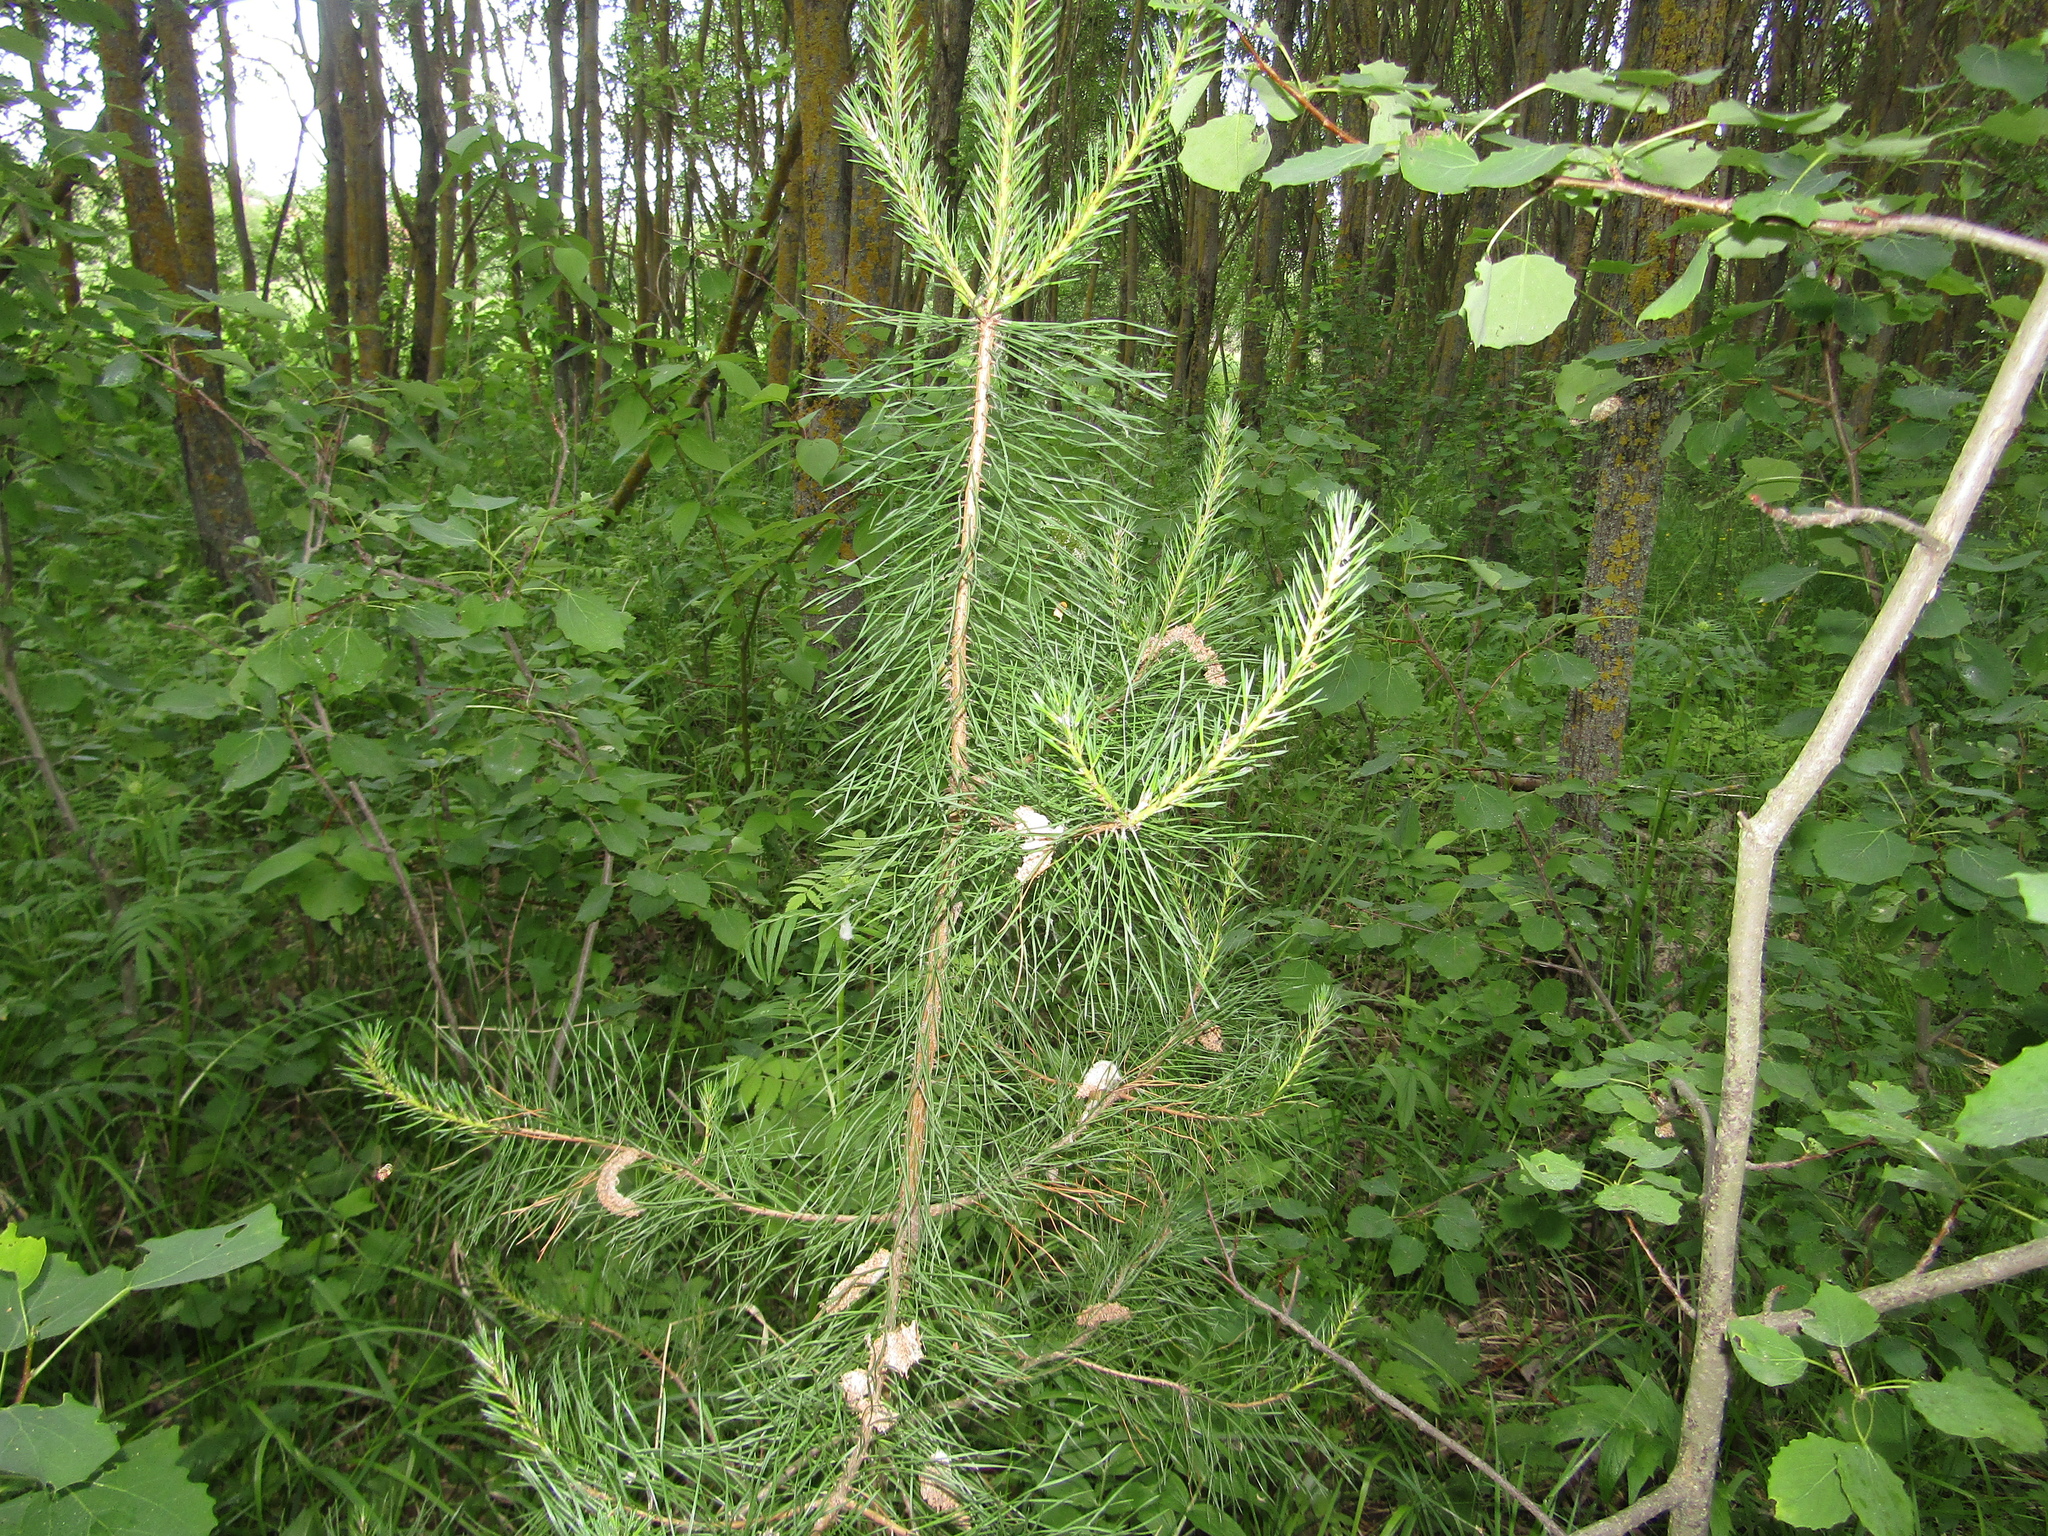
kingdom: Plantae
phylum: Tracheophyta
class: Pinopsida
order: Pinales
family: Pinaceae
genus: Pinus
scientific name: Pinus sylvestris
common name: Scots pine
